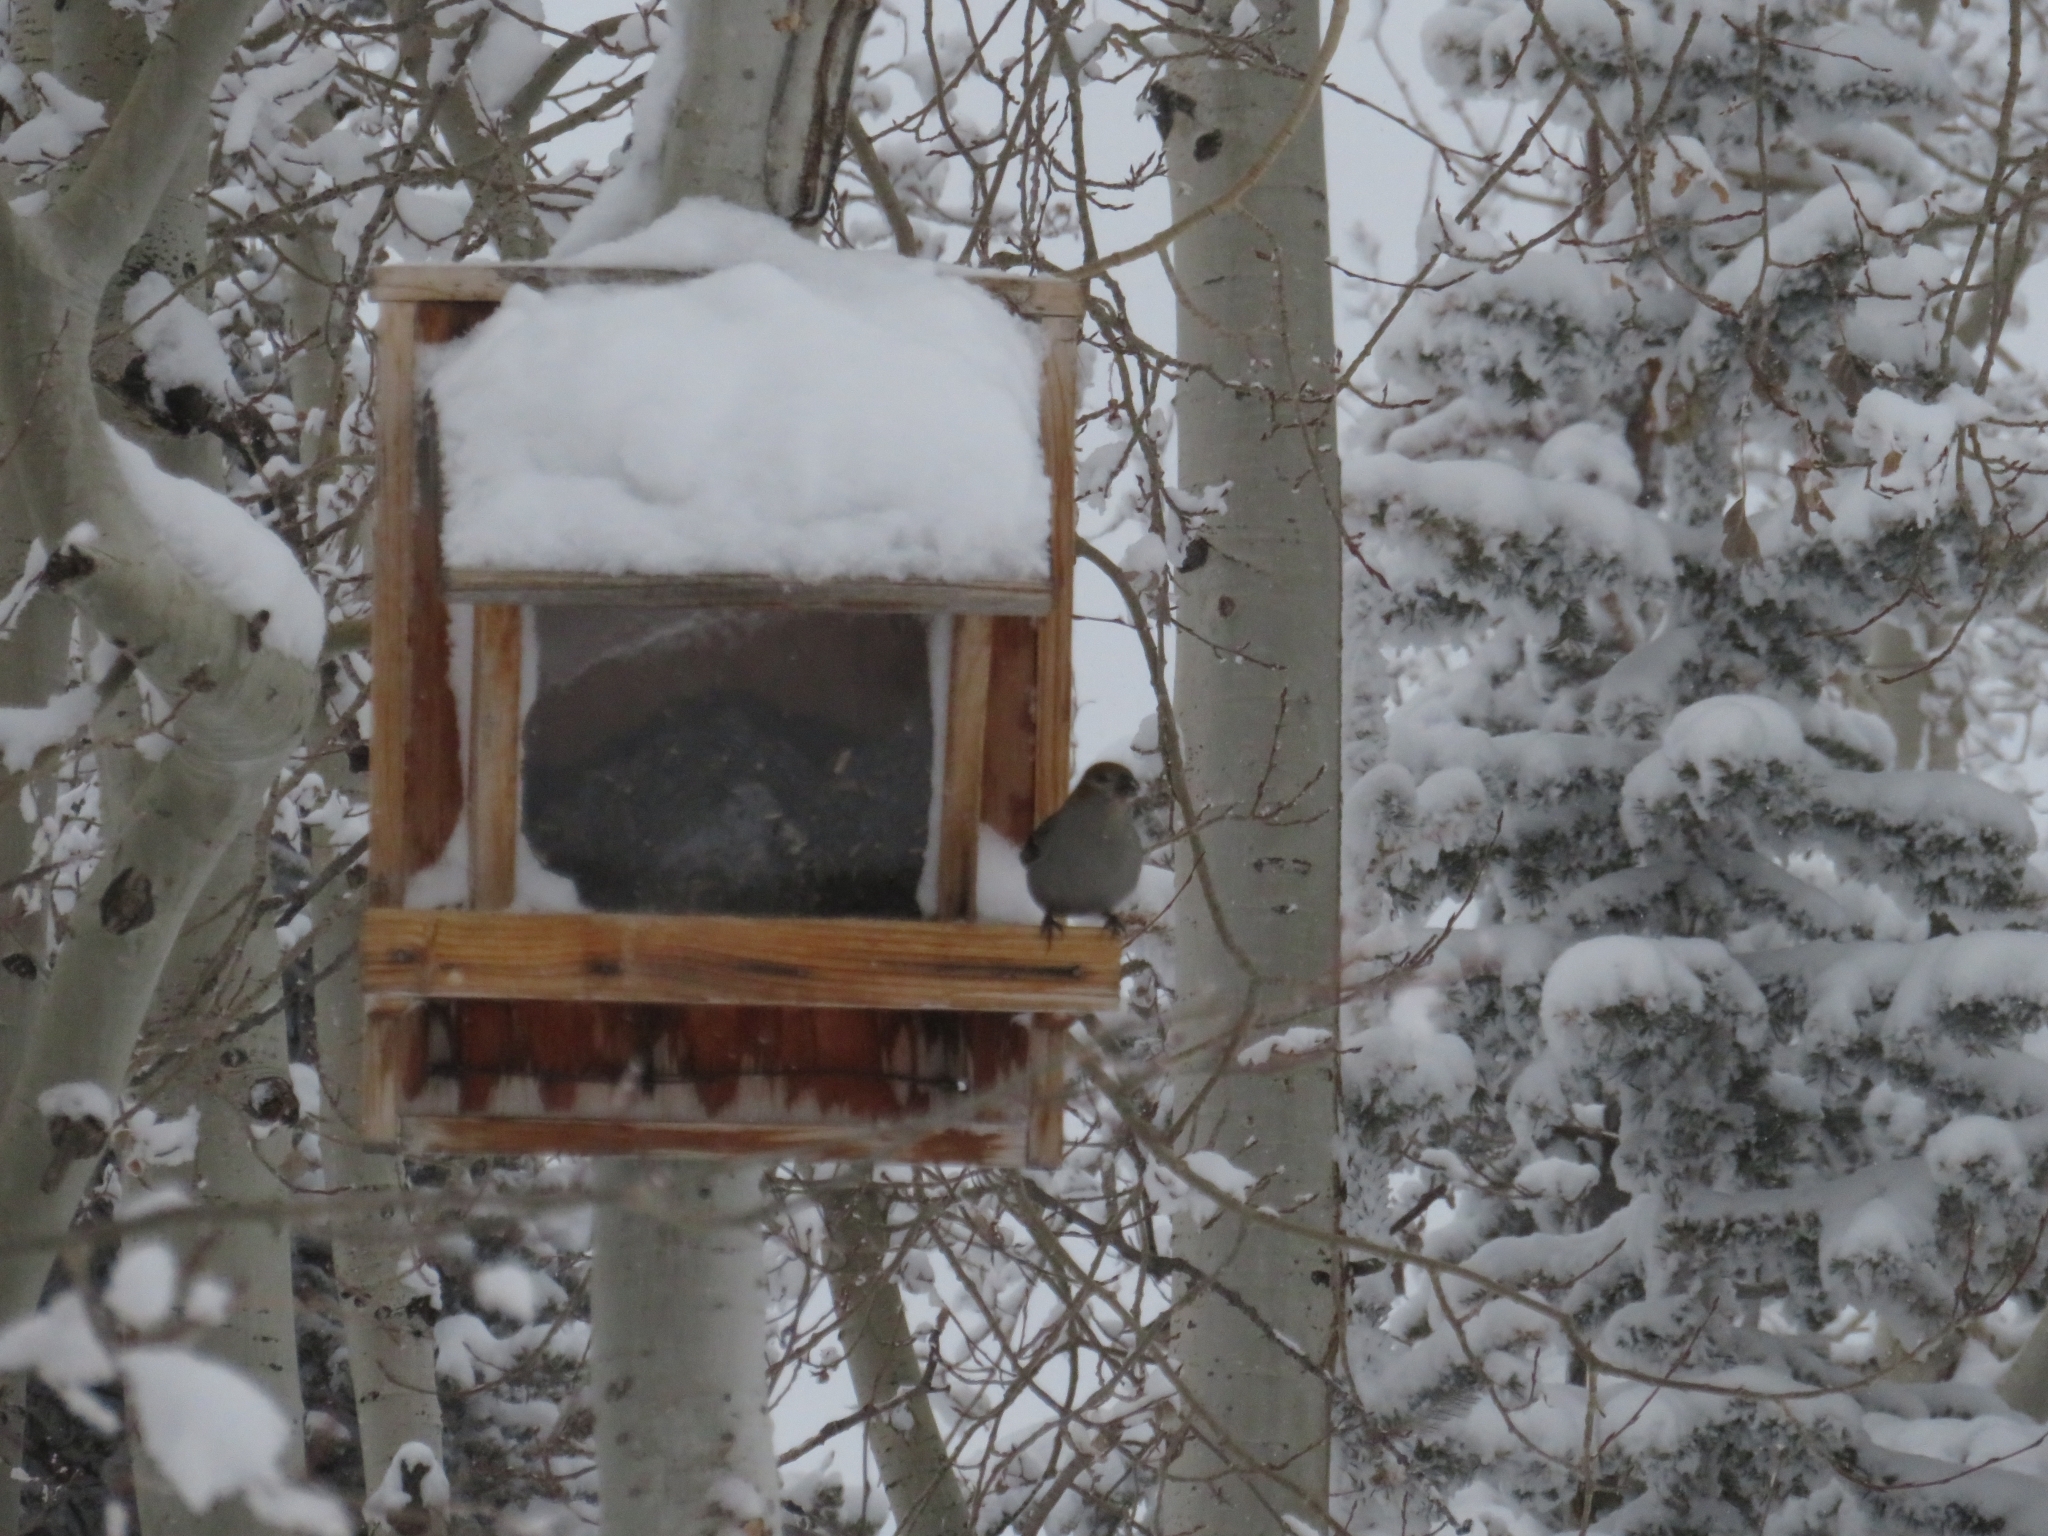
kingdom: Animalia
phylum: Chordata
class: Aves
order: Passeriformes
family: Fringillidae
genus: Pinicola
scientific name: Pinicola enucleator
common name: Pine grosbeak
